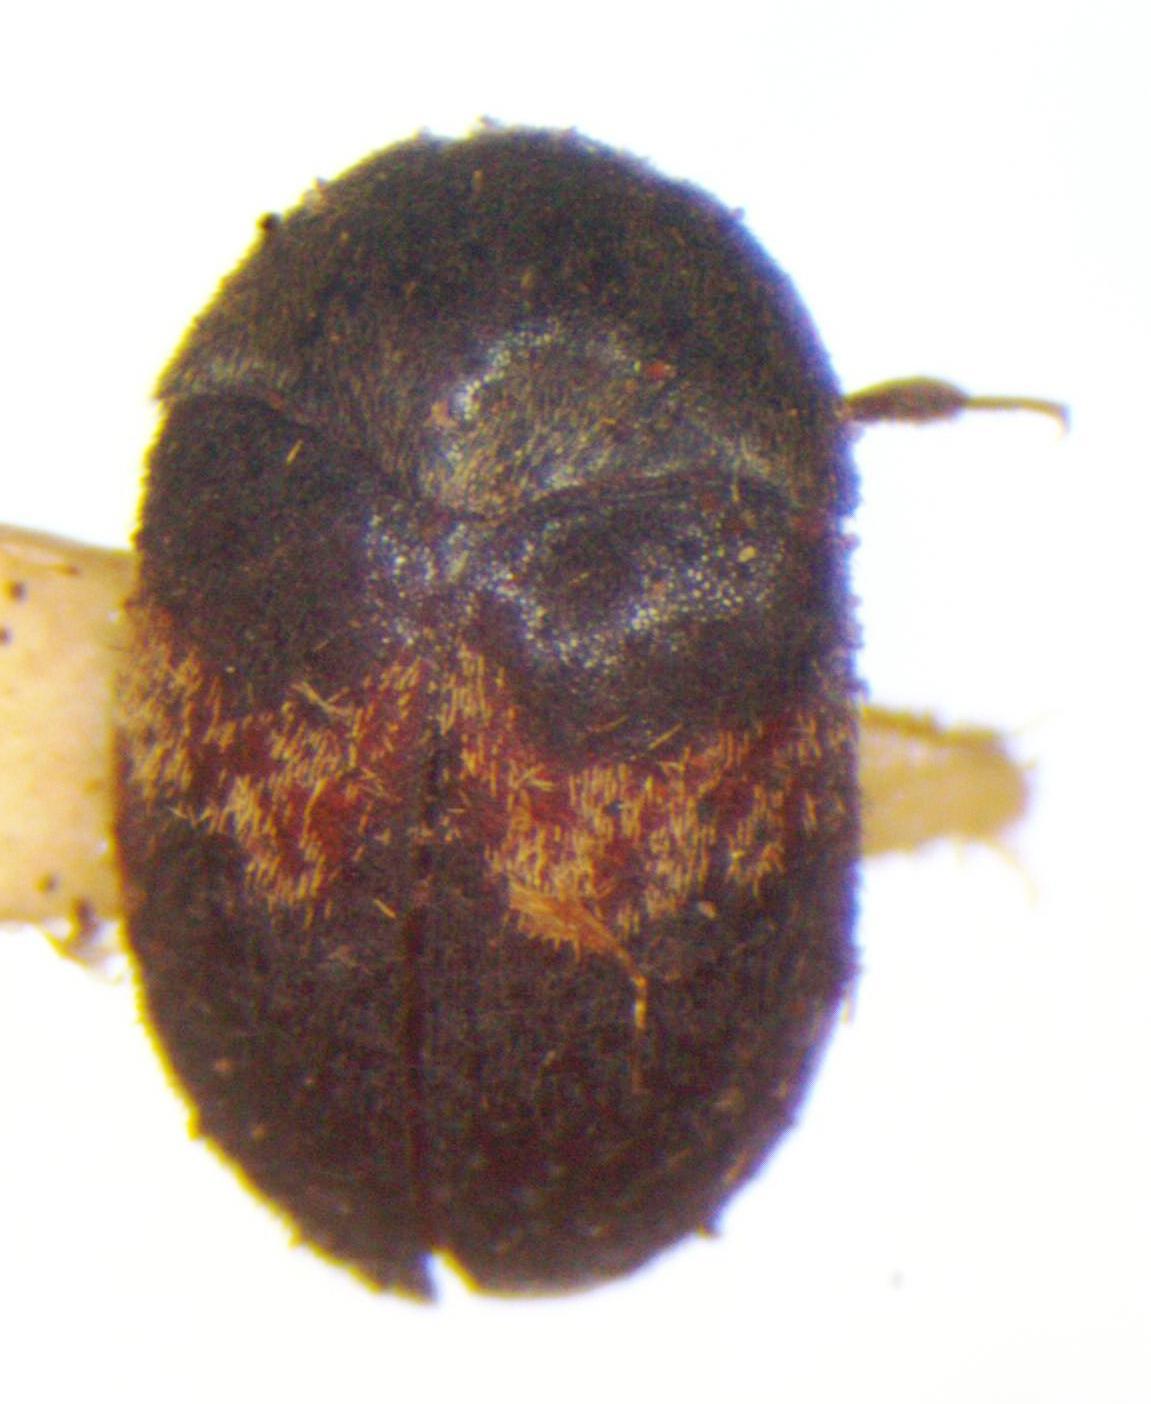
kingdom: Animalia
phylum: Arthropoda
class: Insecta
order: Coleoptera
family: Dermestidae
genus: Attagenus
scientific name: Attagenus fasciatus
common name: Wardrobe beetle
